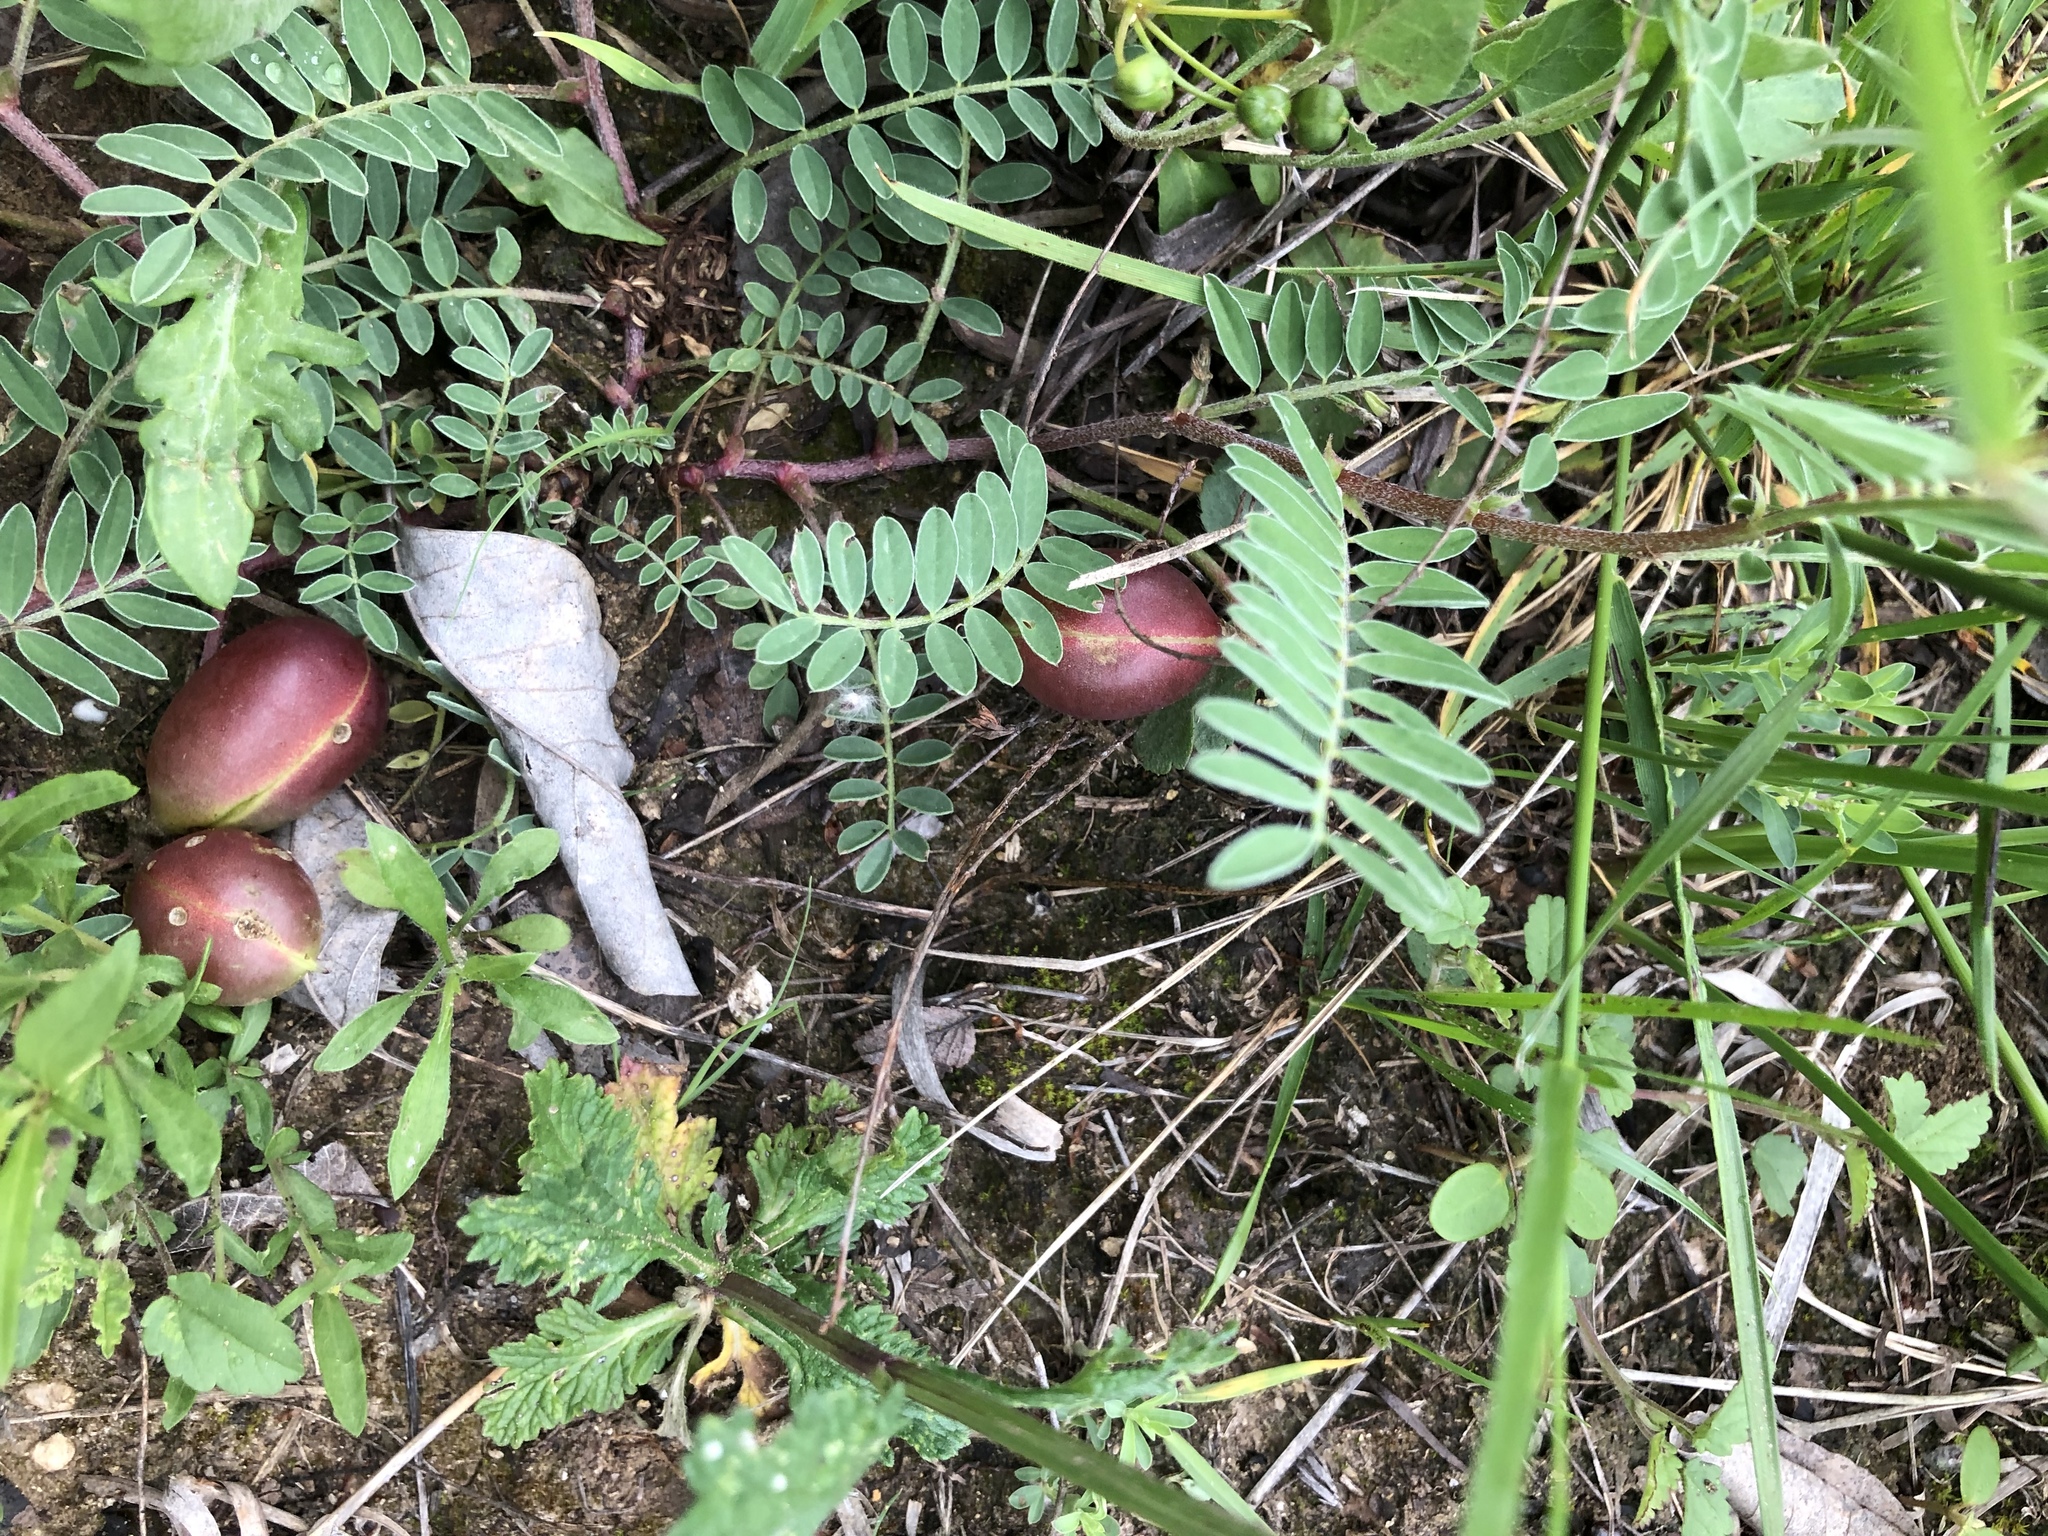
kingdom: Plantae
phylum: Tracheophyta
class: Magnoliopsida
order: Fabales
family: Fabaceae
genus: Astragalus
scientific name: Astragalus crassicarpus
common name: Ground-plum milk-vetch
